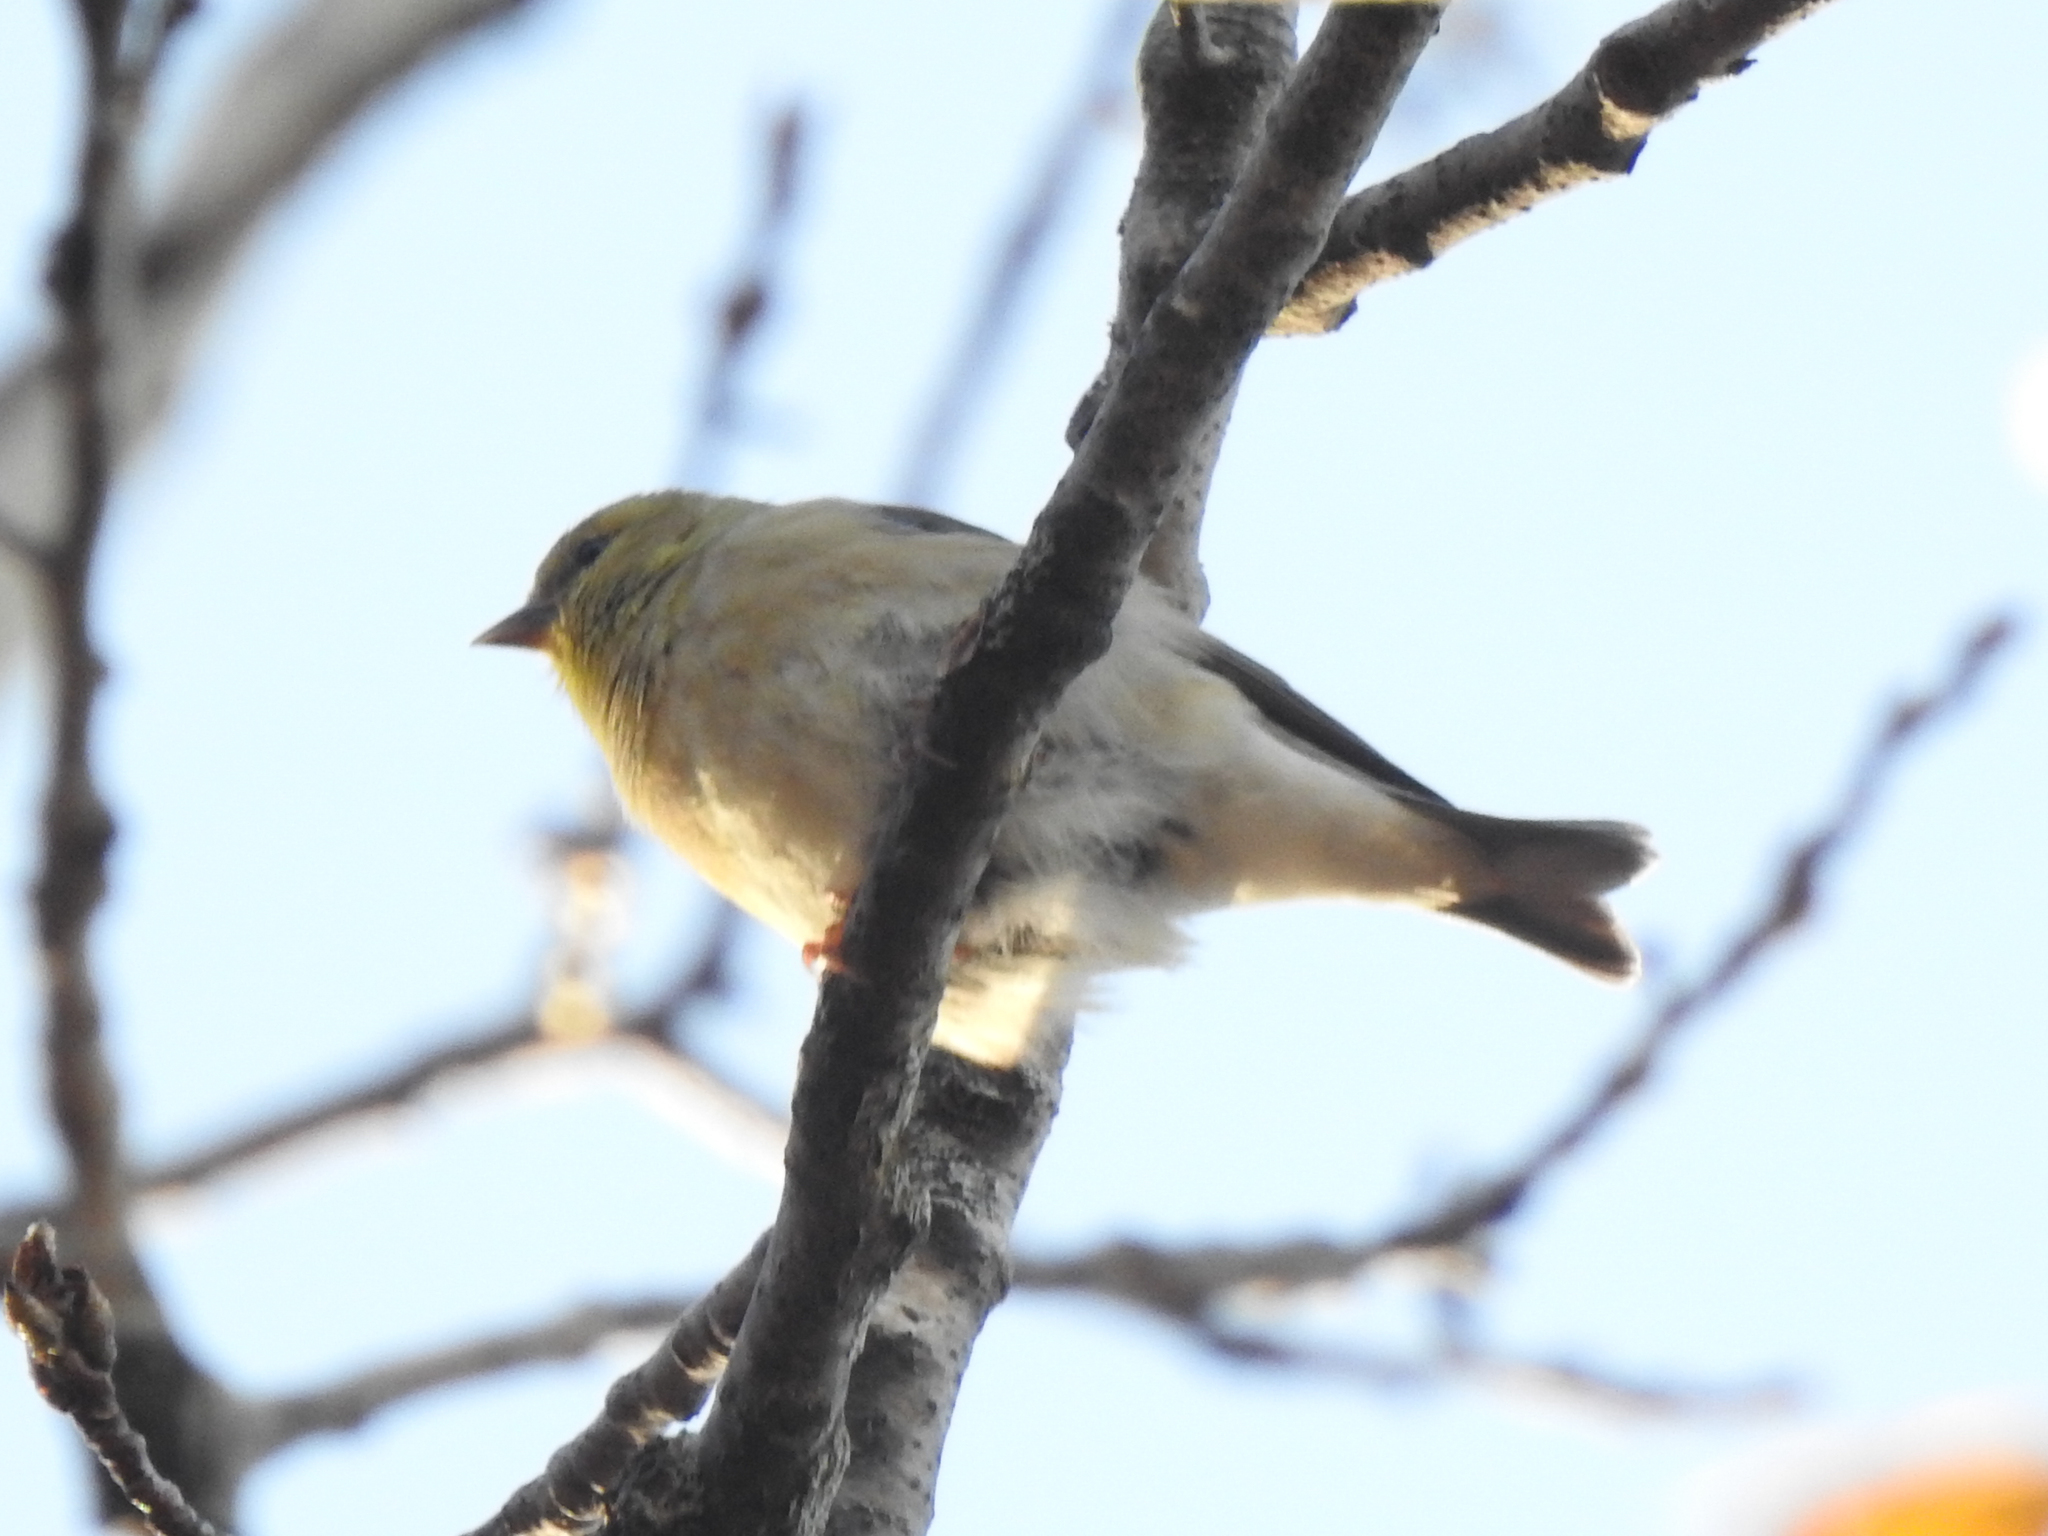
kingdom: Animalia
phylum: Chordata
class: Aves
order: Passeriformes
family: Fringillidae
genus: Spinus
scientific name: Spinus tristis
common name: American goldfinch
